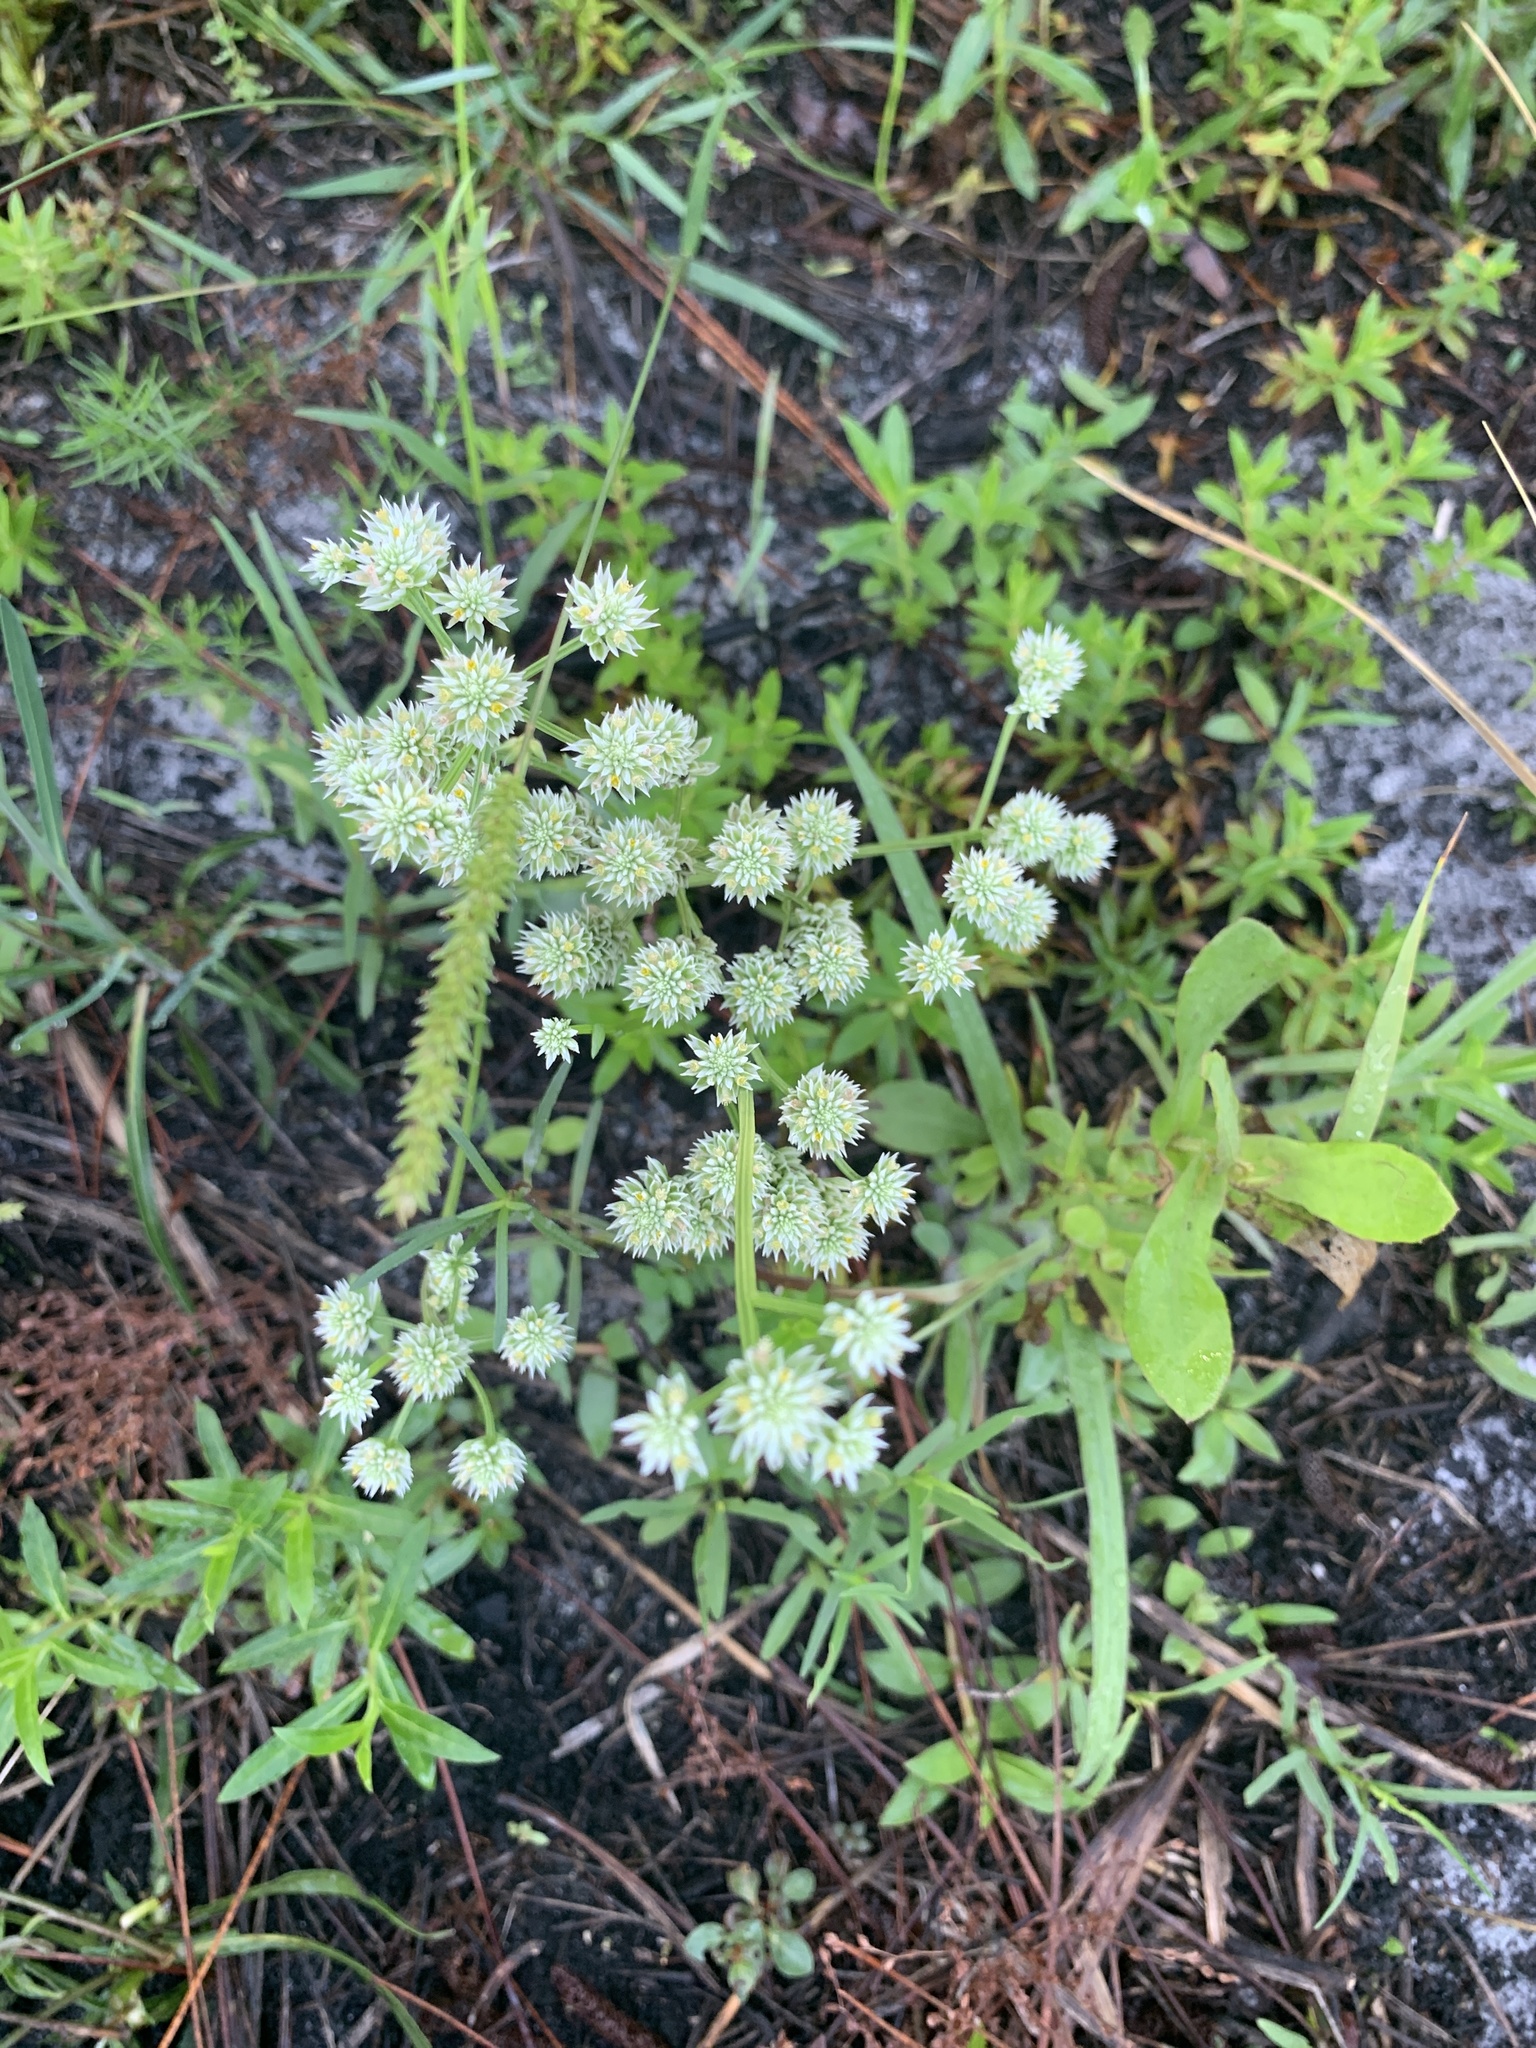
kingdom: Plantae
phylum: Tracheophyta
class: Magnoliopsida
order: Fabales
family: Polygalaceae
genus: Polygala
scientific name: Polygala baldwinii
